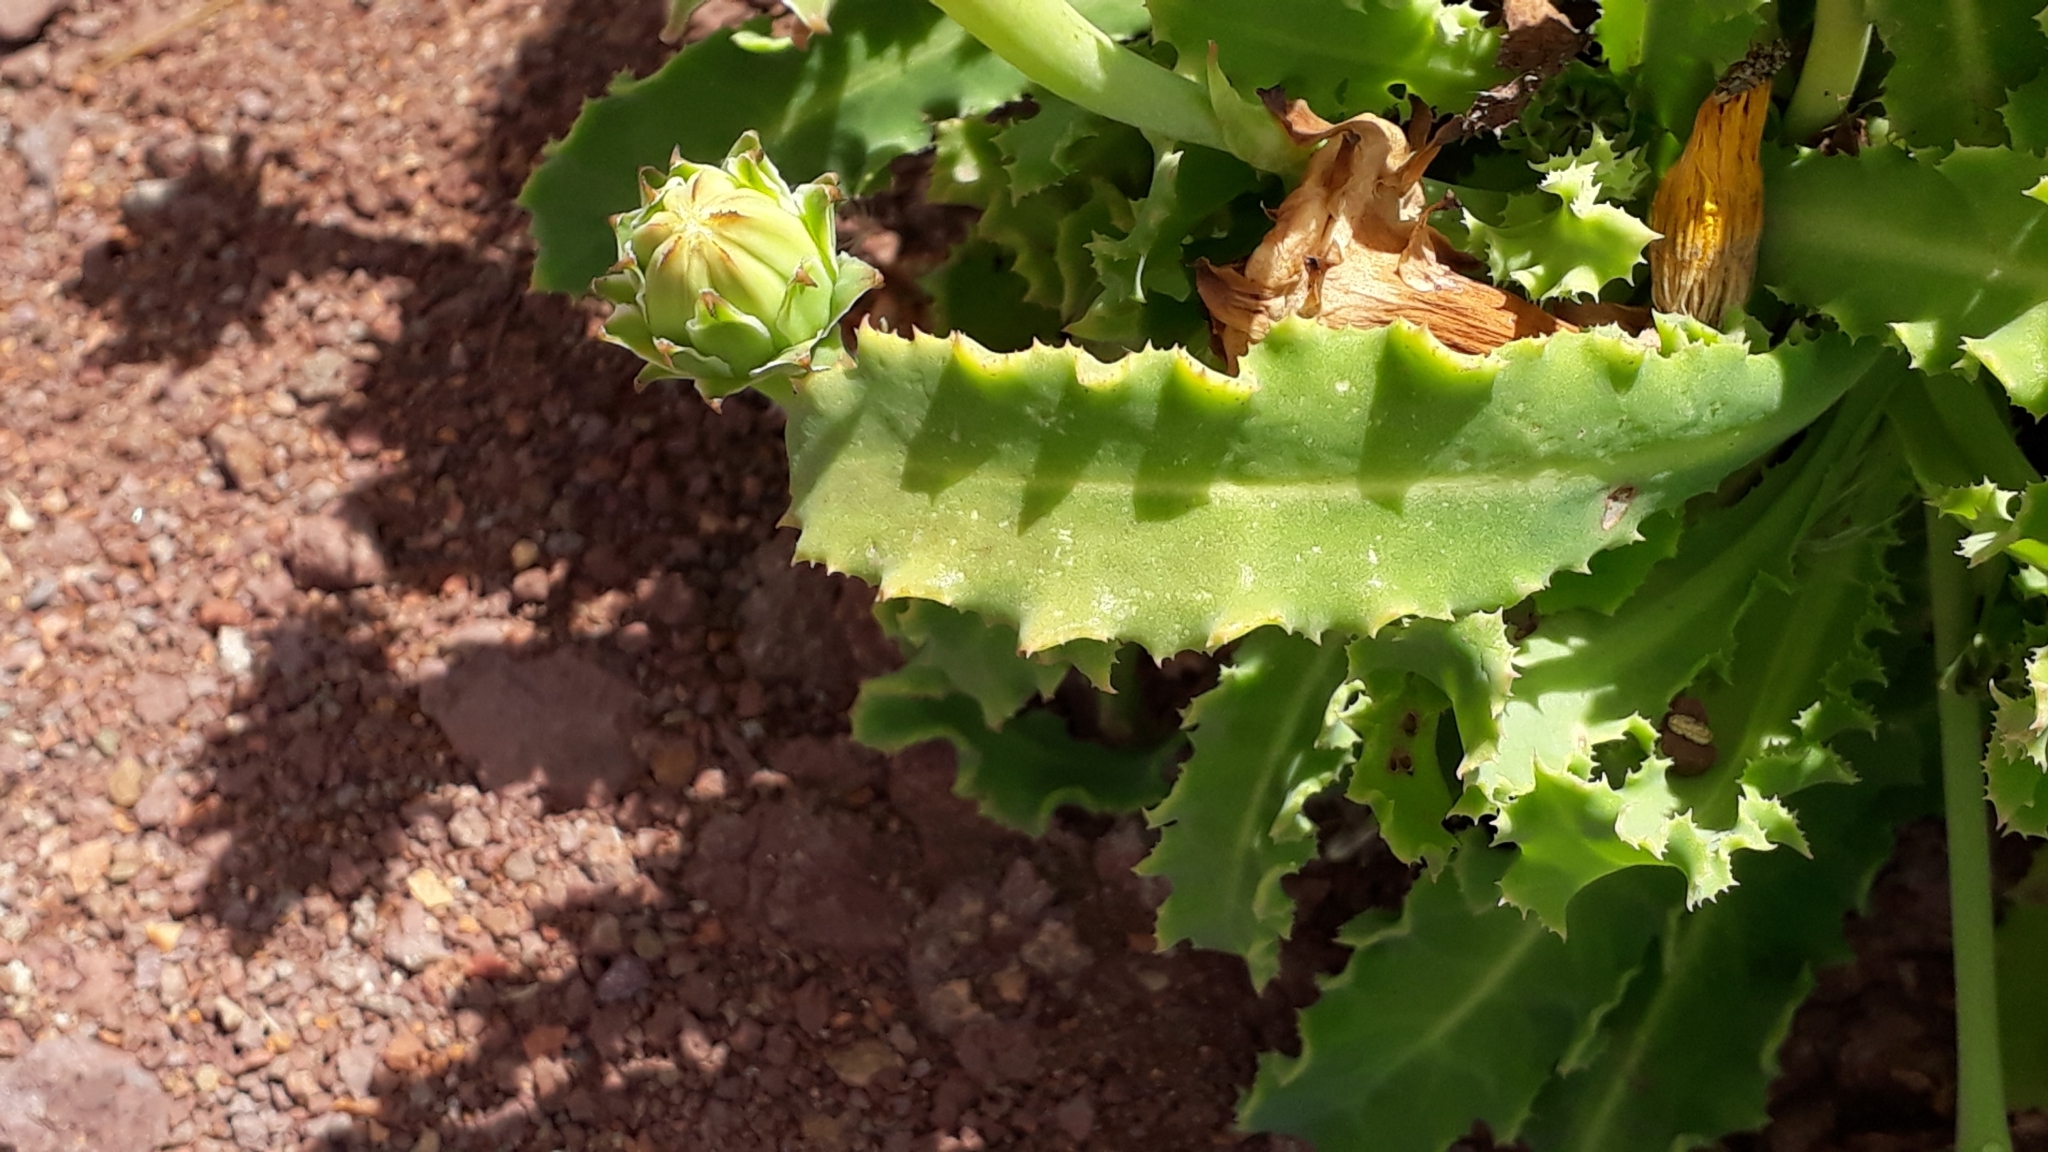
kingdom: Plantae
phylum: Tracheophyta
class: Magnoliopsida
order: Asterales
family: Asteraceae
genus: Reichardia
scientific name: Reichardia ligulata
